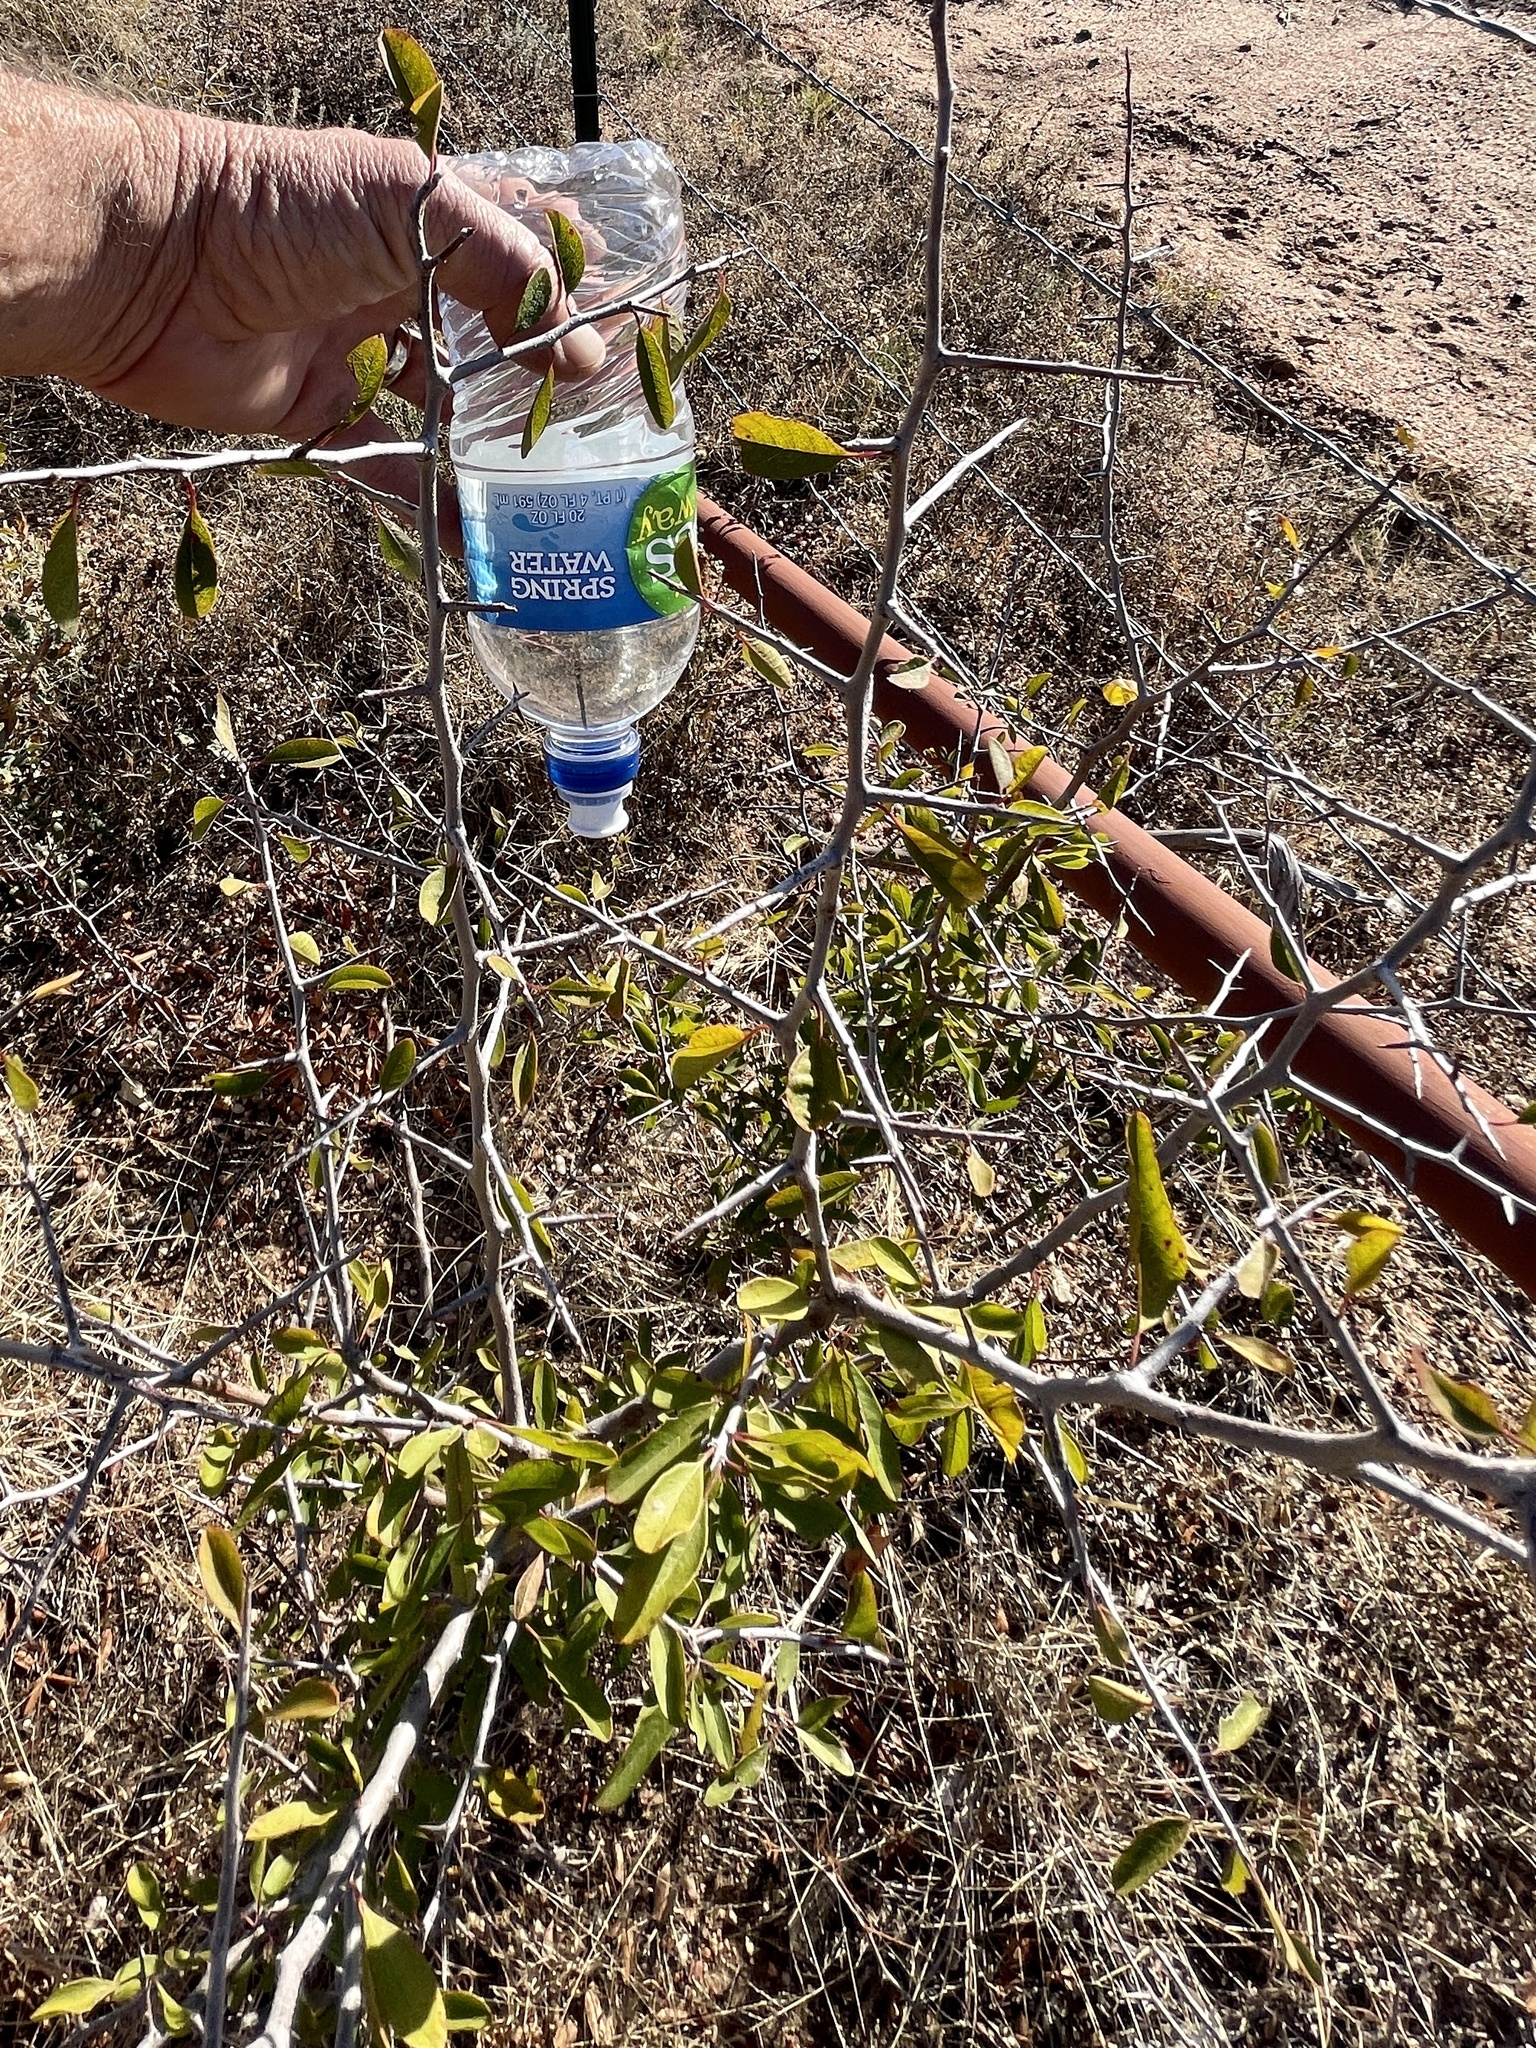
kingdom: Plantae
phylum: Tracheophyta
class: Magnoliopsida
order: Ericales
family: Sapotaceae
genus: Sideroxylon
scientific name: Sideroxylon lanuginosum
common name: Chittamwood
